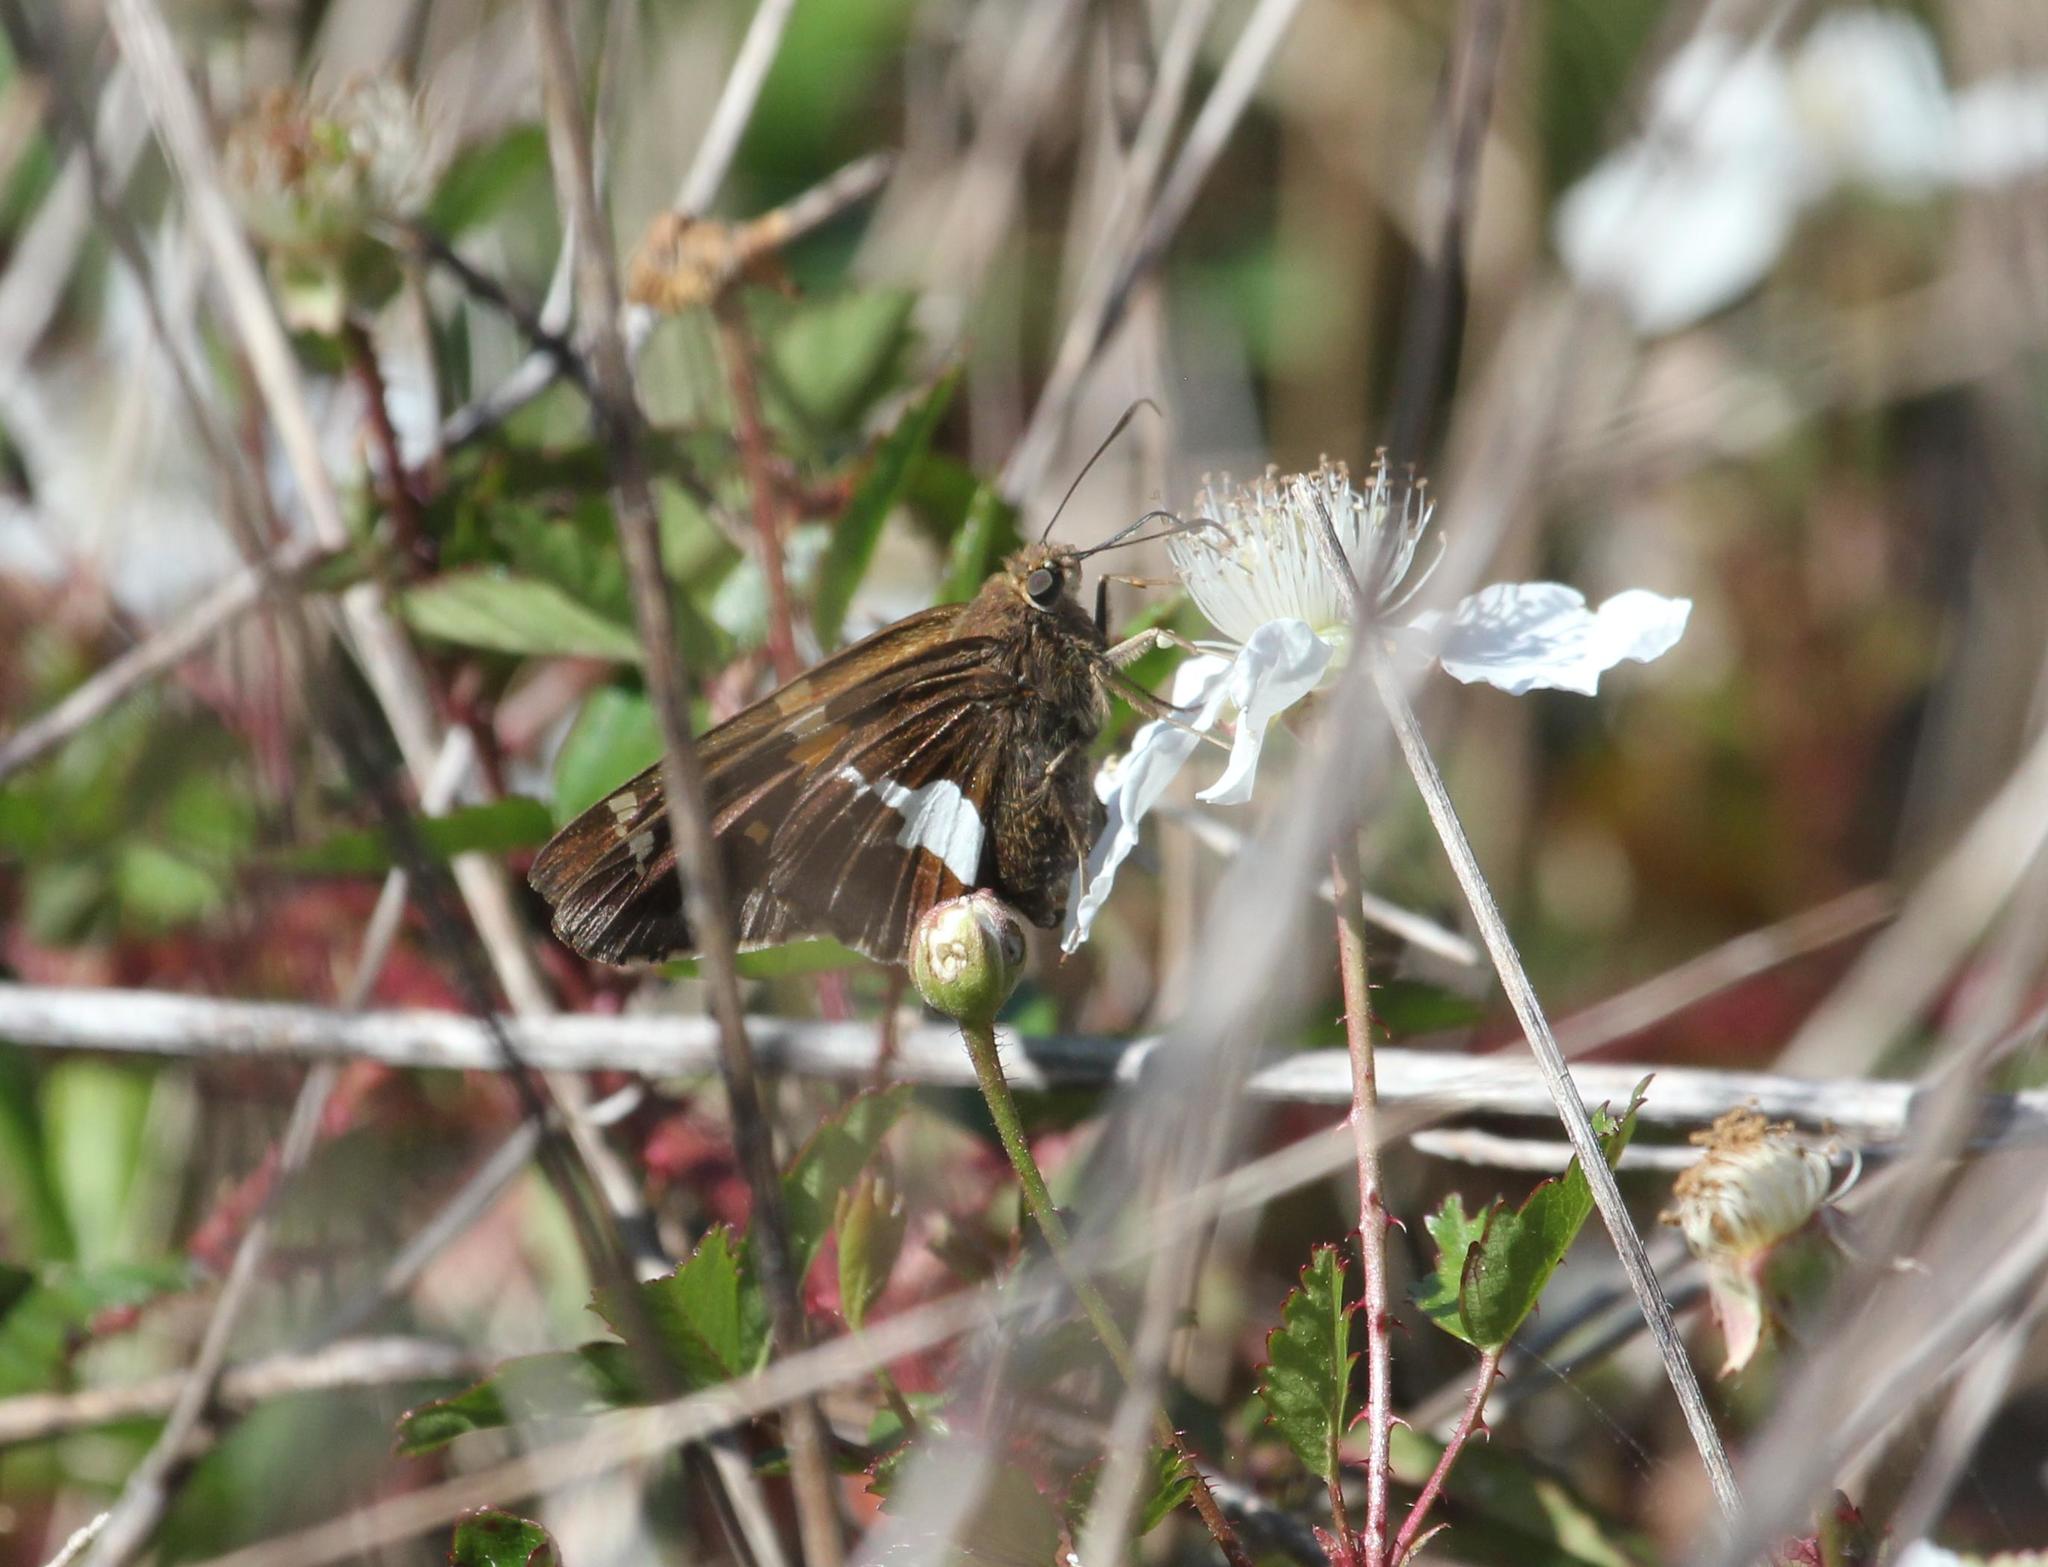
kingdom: Animalia
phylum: Arthropoda
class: Insecta
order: Lepidoptera
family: Hesperiidae
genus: Epargyreus
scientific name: Epargyreus clarus
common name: Silver-spotted skipper
